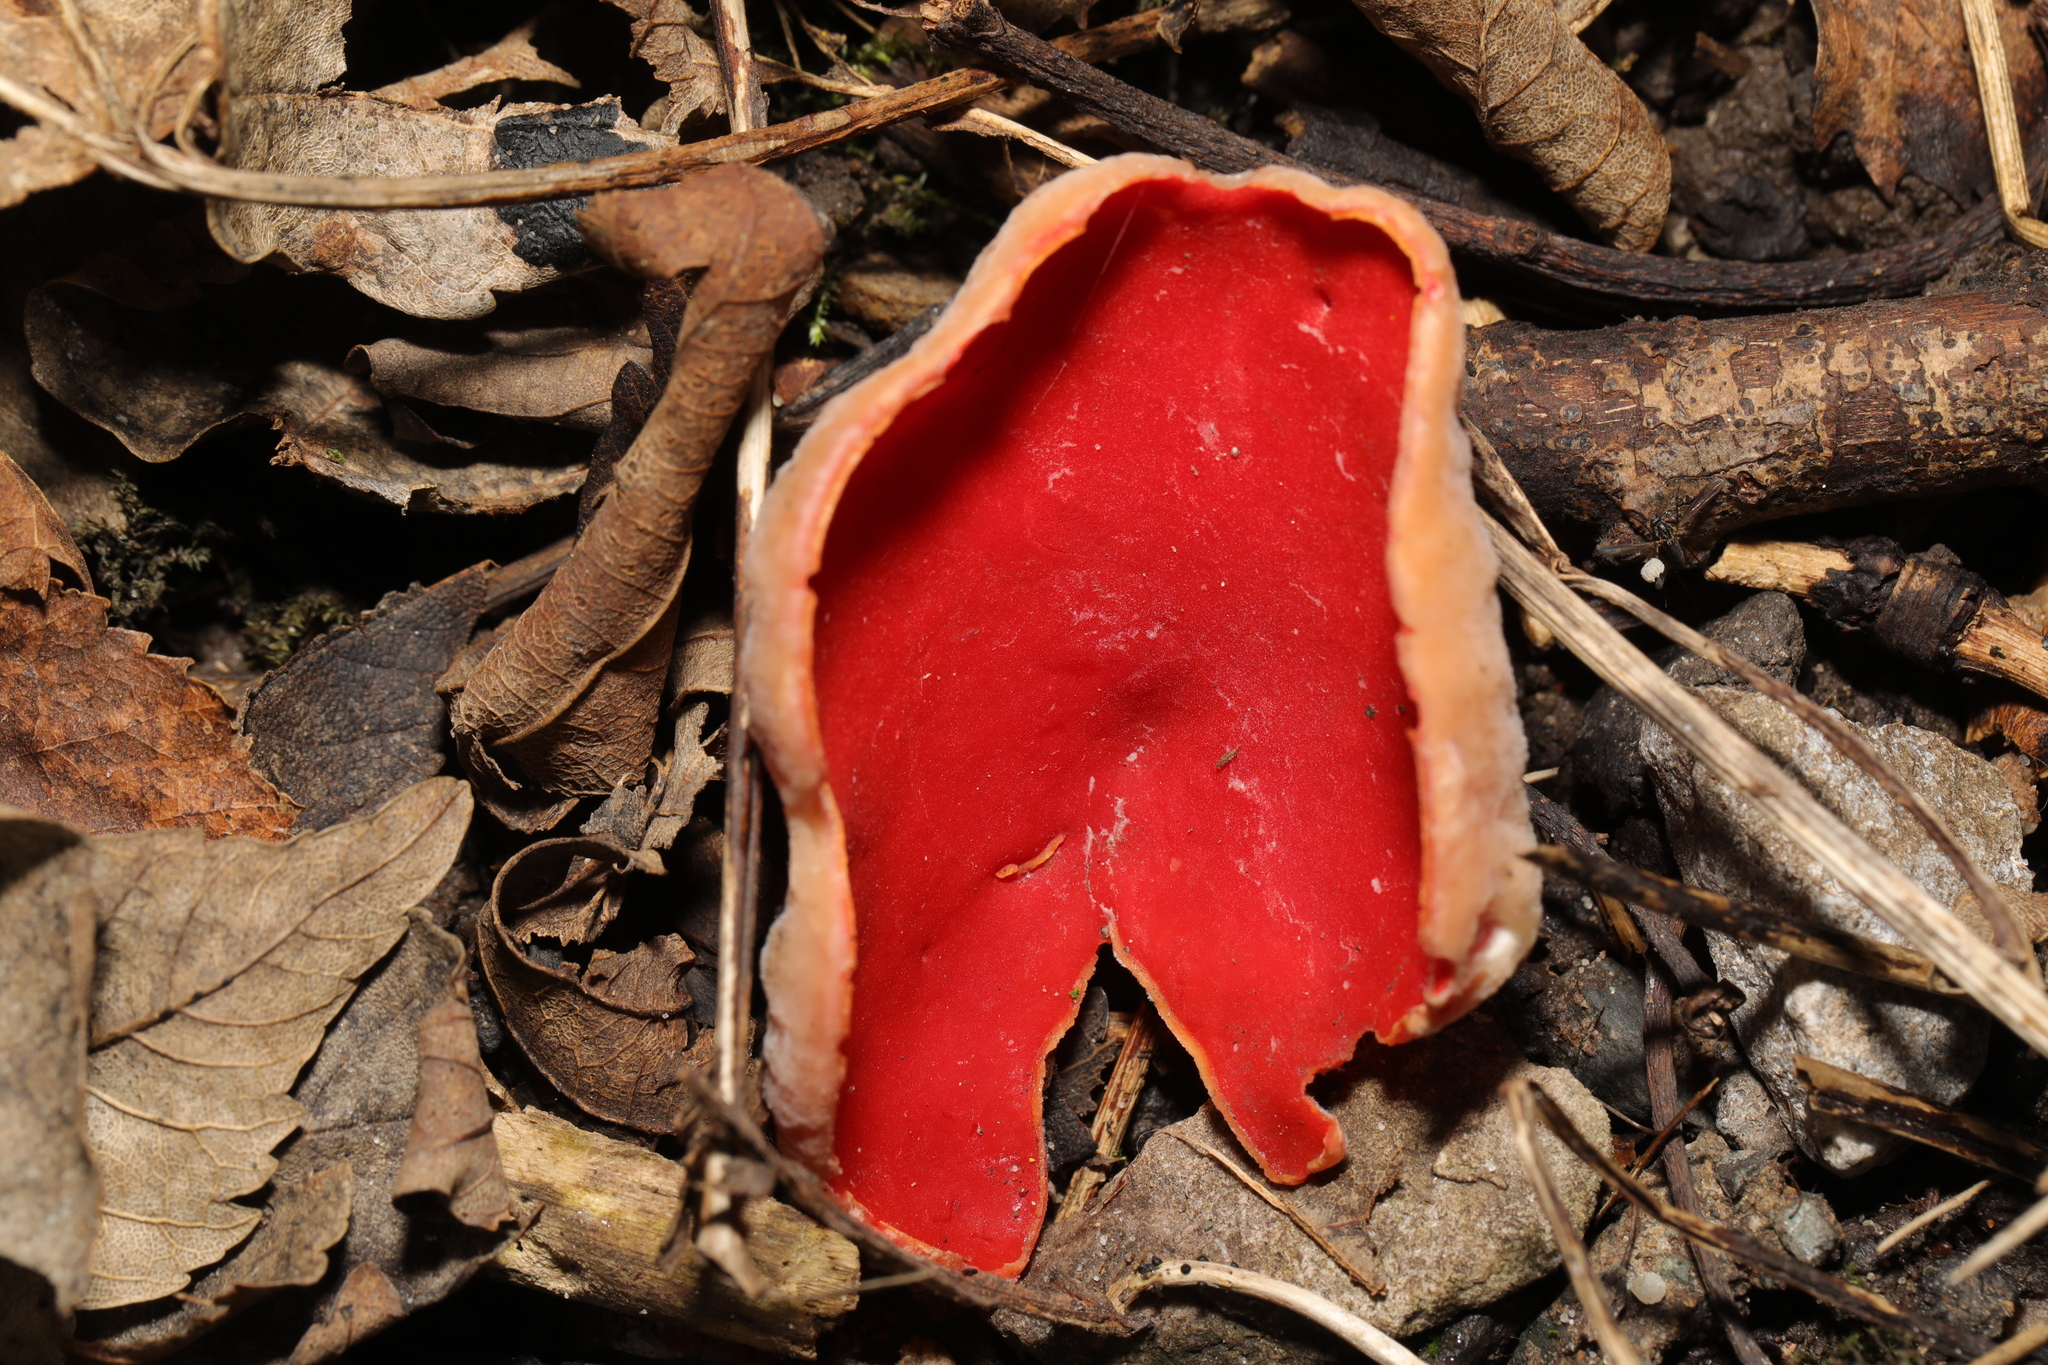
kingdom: Fungi
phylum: Ascomycota
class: Pezizomycetes
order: Pezizales
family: Sarcoscyphaceae
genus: Sarcoscypha
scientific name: Sarcoscypha
